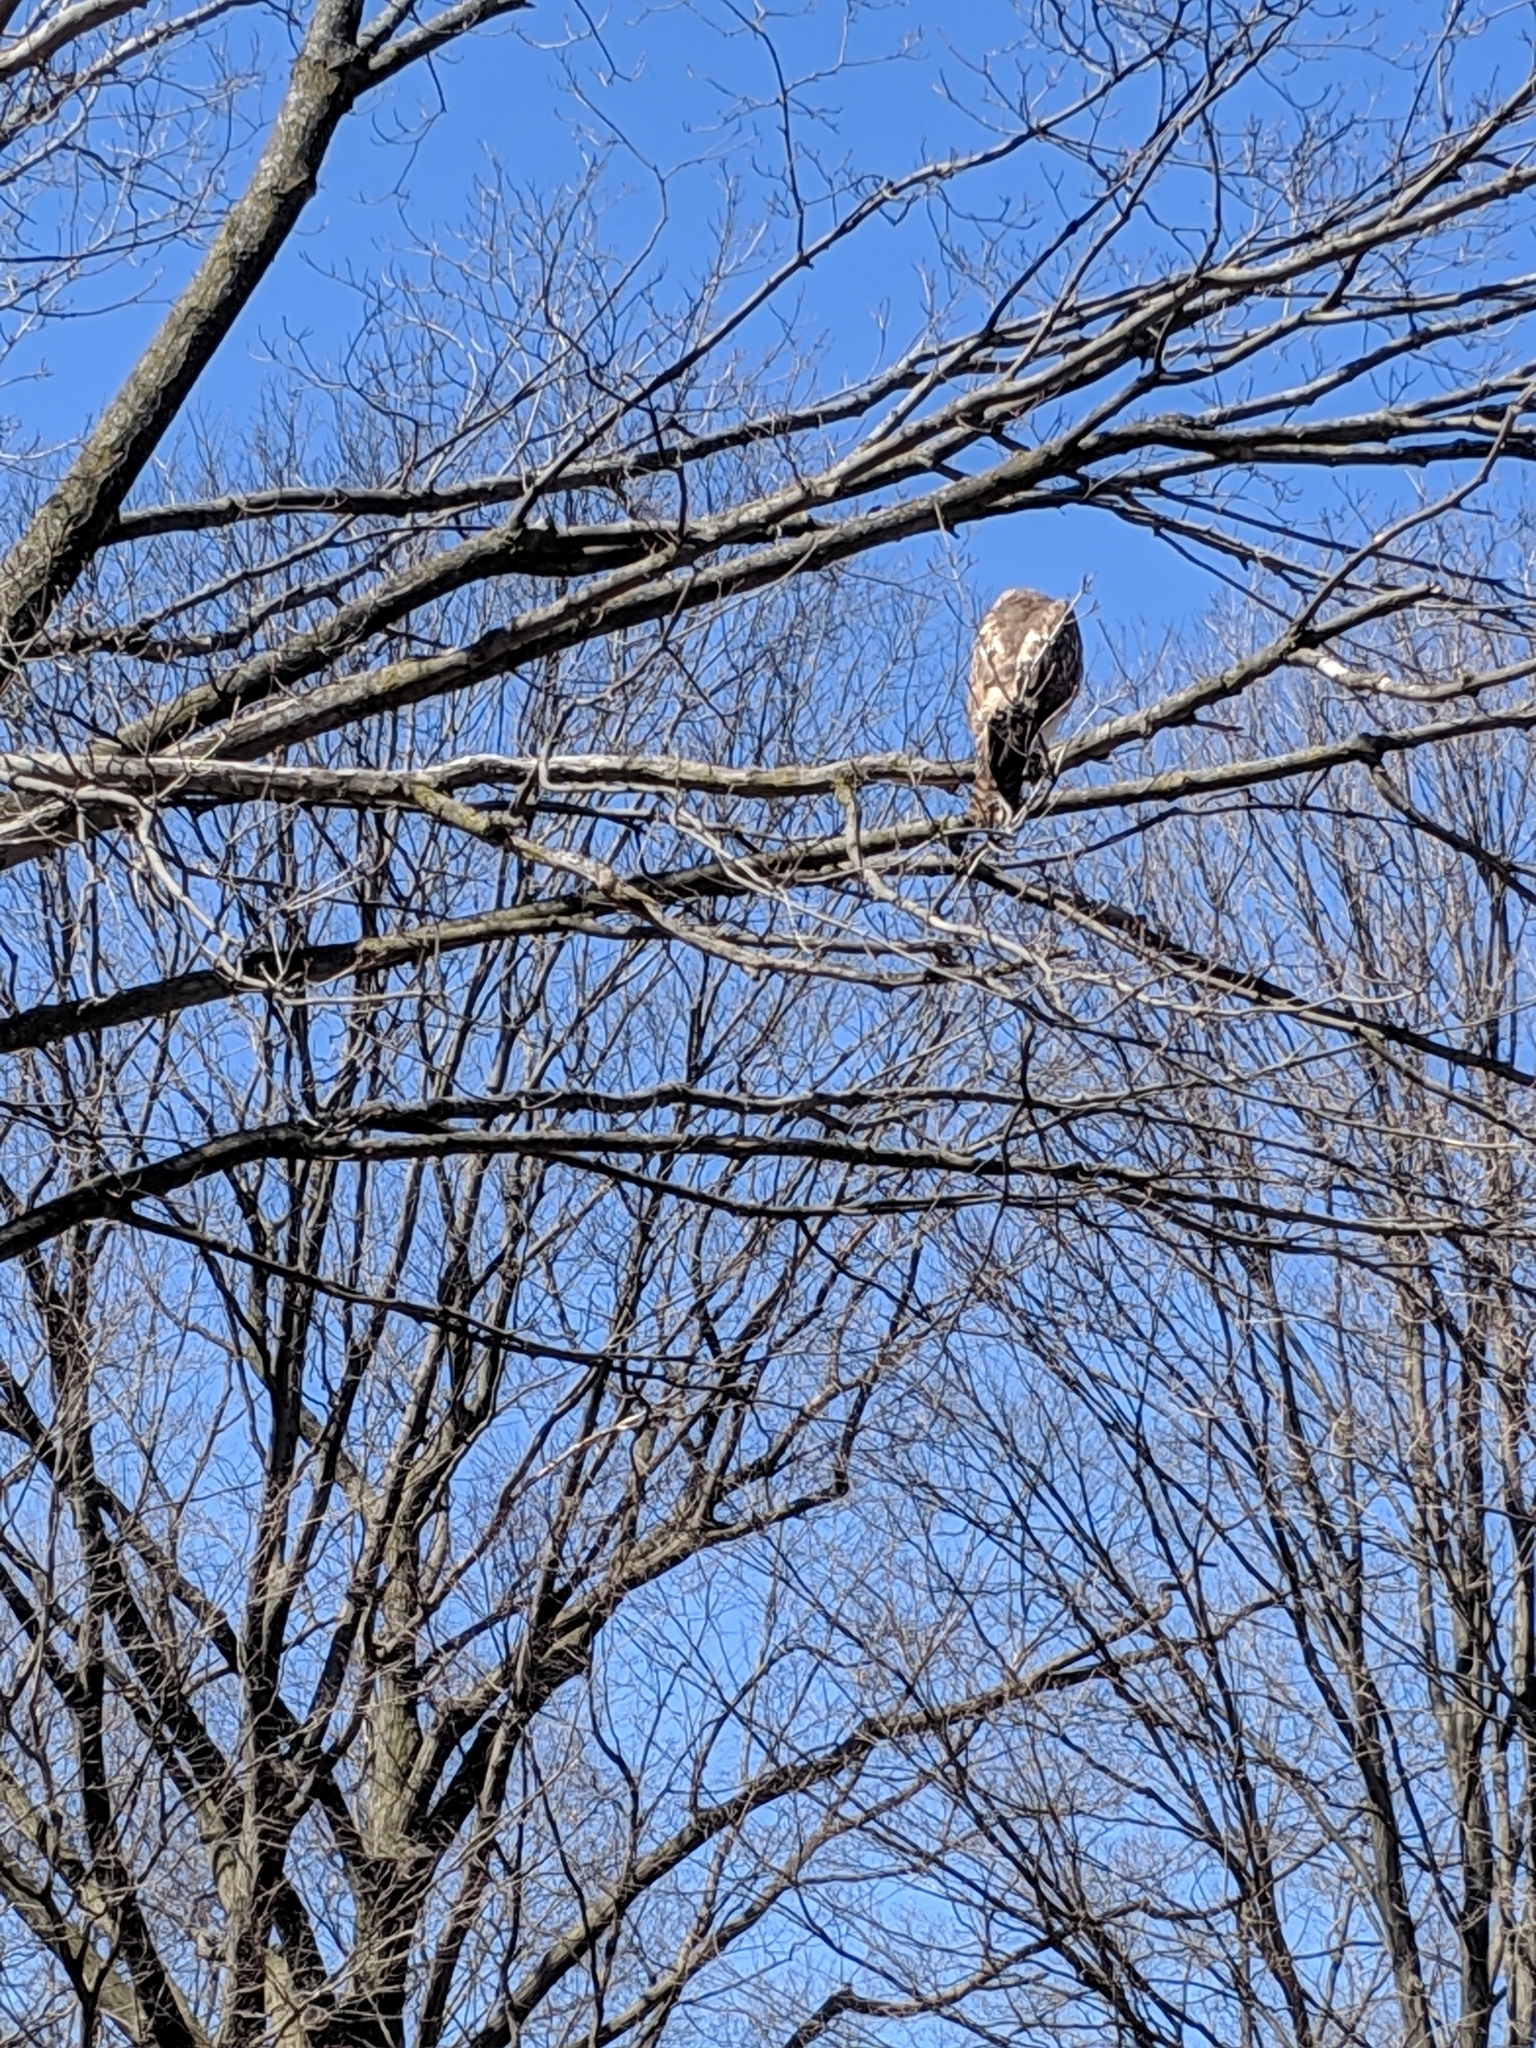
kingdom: Animalia
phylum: Chordata
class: Aves
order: Accipitriformes
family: Accipitridae
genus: Buteo
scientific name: Buteo jamaicensis
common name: Red-tailed hawk
